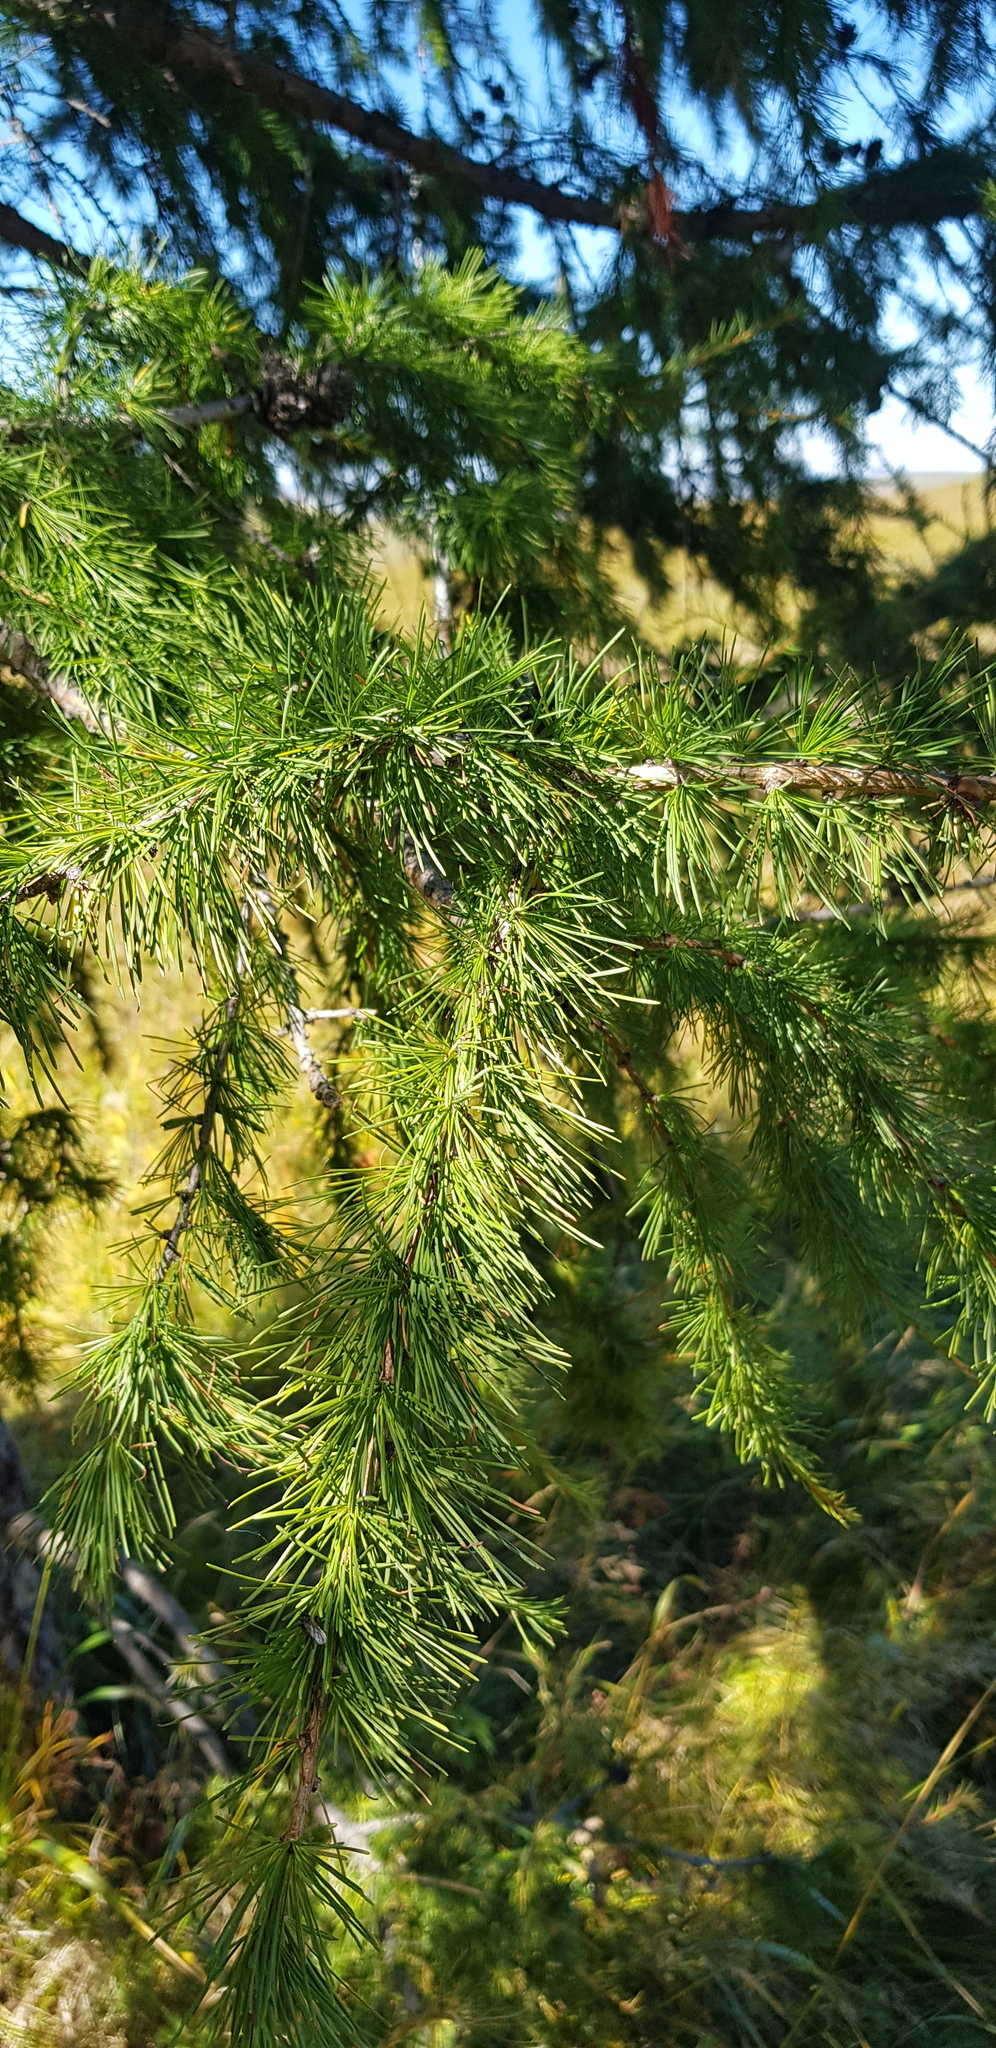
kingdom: Plantae
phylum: Tracheophyta
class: Pinopsida
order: Pinales
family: Pinaceae
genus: Larix
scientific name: Larix sibirica
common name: Siberian larch
